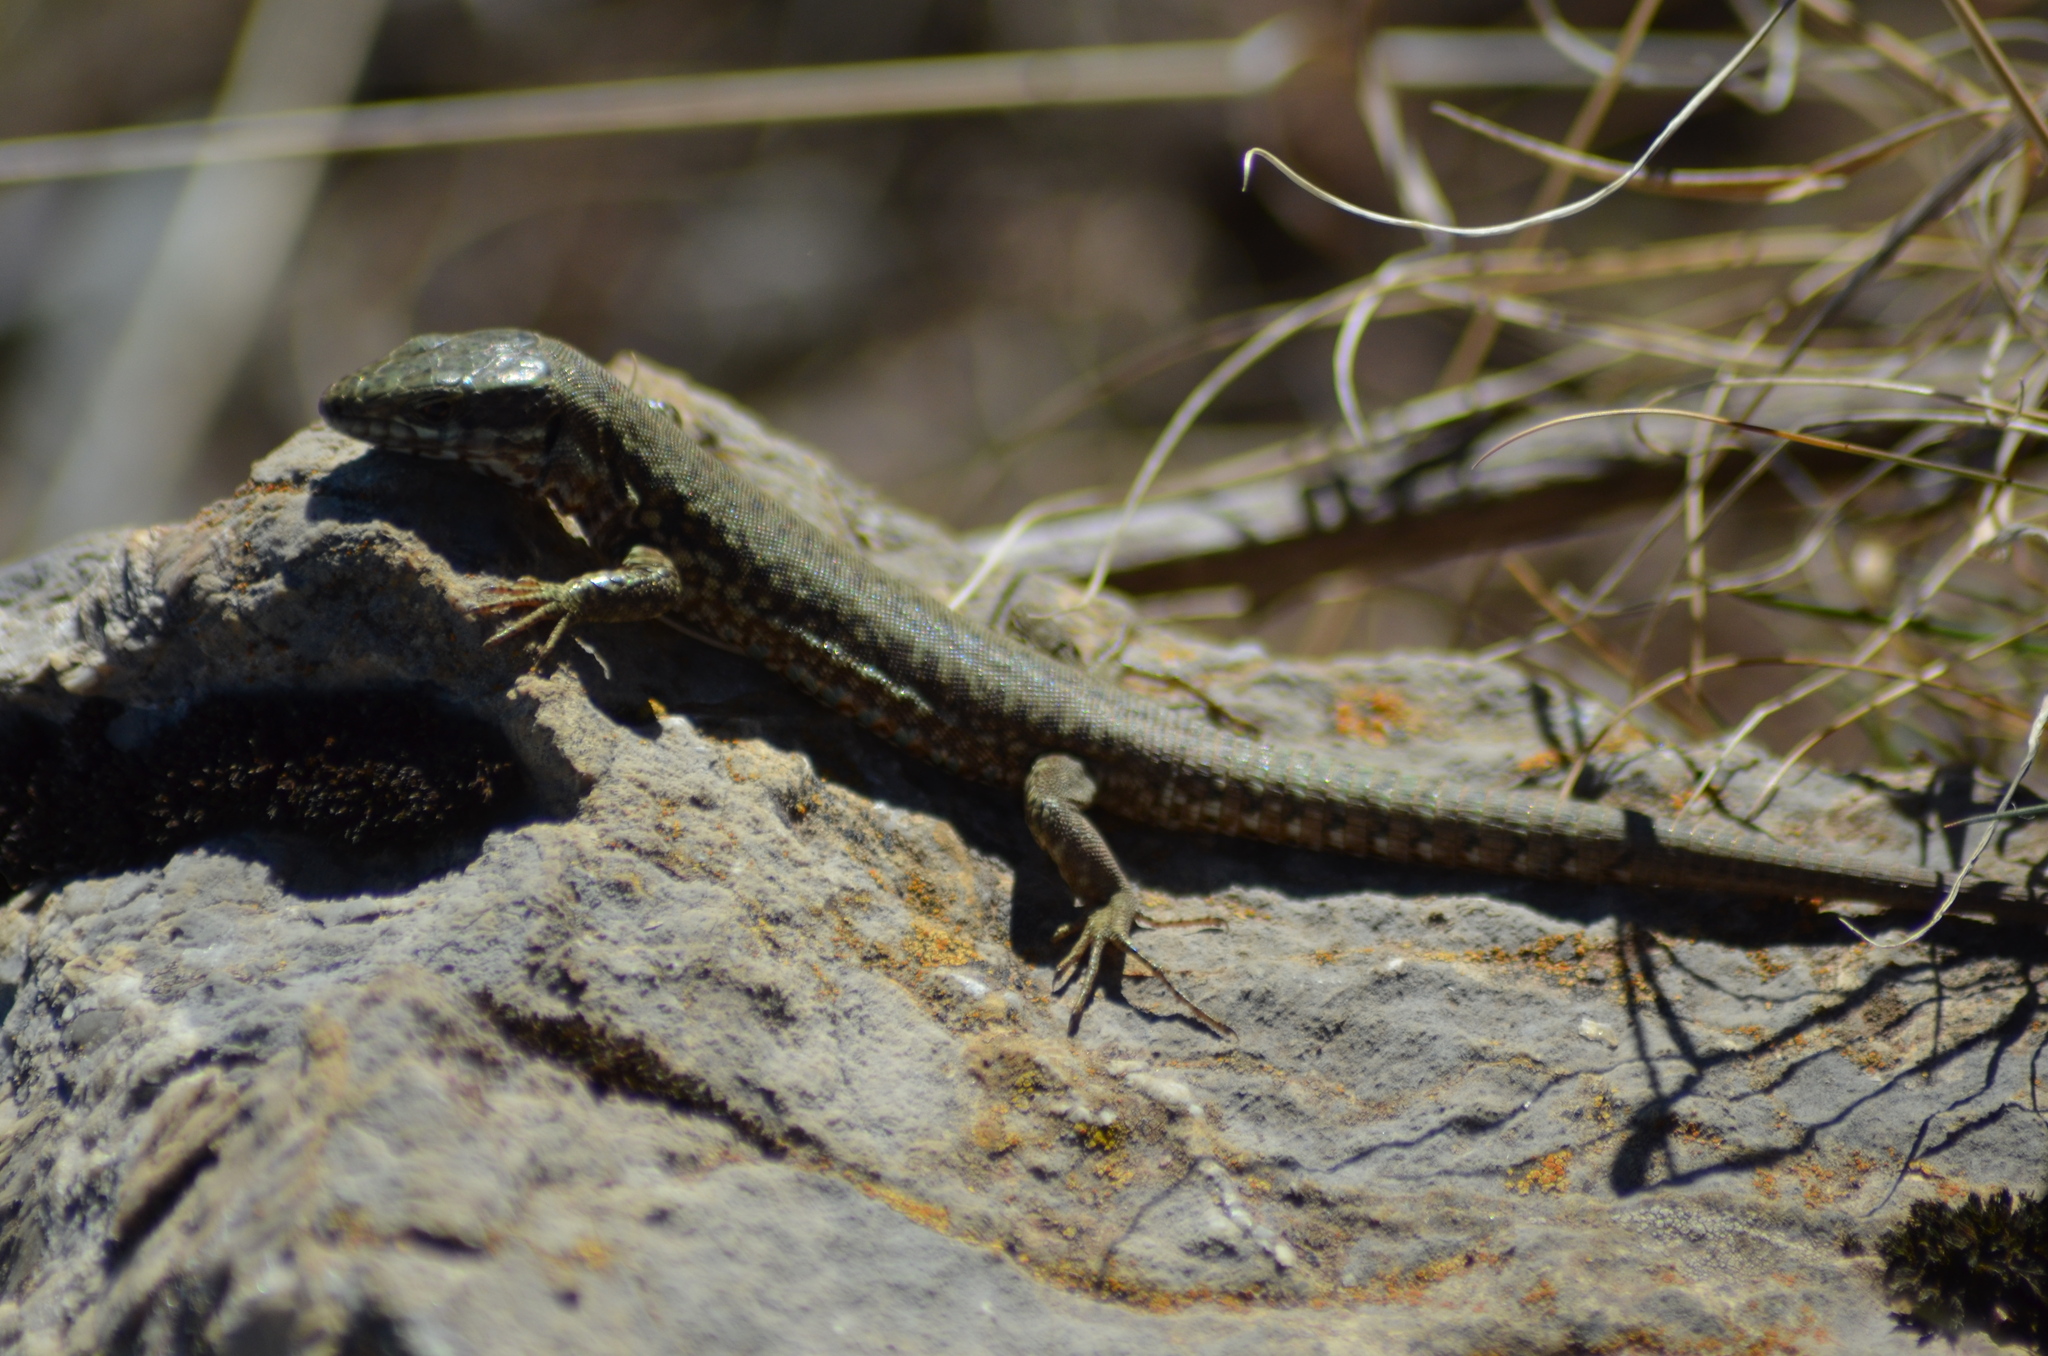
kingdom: Animalia
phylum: Chordata
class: Squamata
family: Lacertidae
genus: Podarcis
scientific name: Podarcis muralis
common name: Common wall lizard
